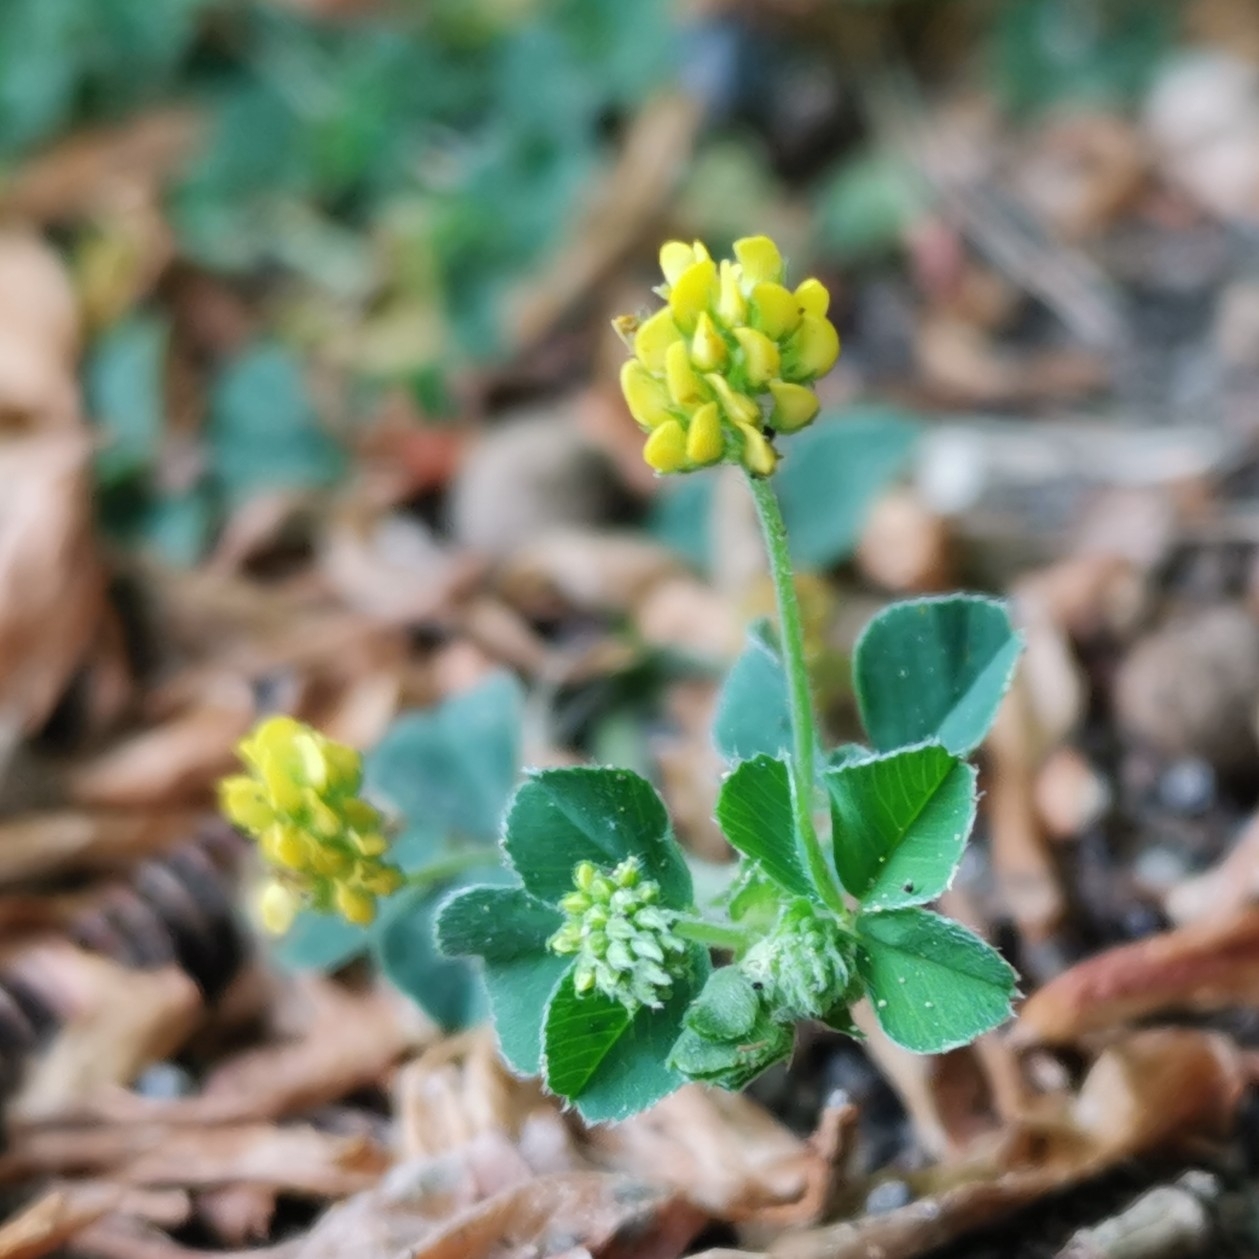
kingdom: Plantae
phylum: Tracheophyta
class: Magnoliopsida
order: Fabales
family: Fabaceae
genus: Medicago
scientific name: Medicago lupulina
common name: Black medick
